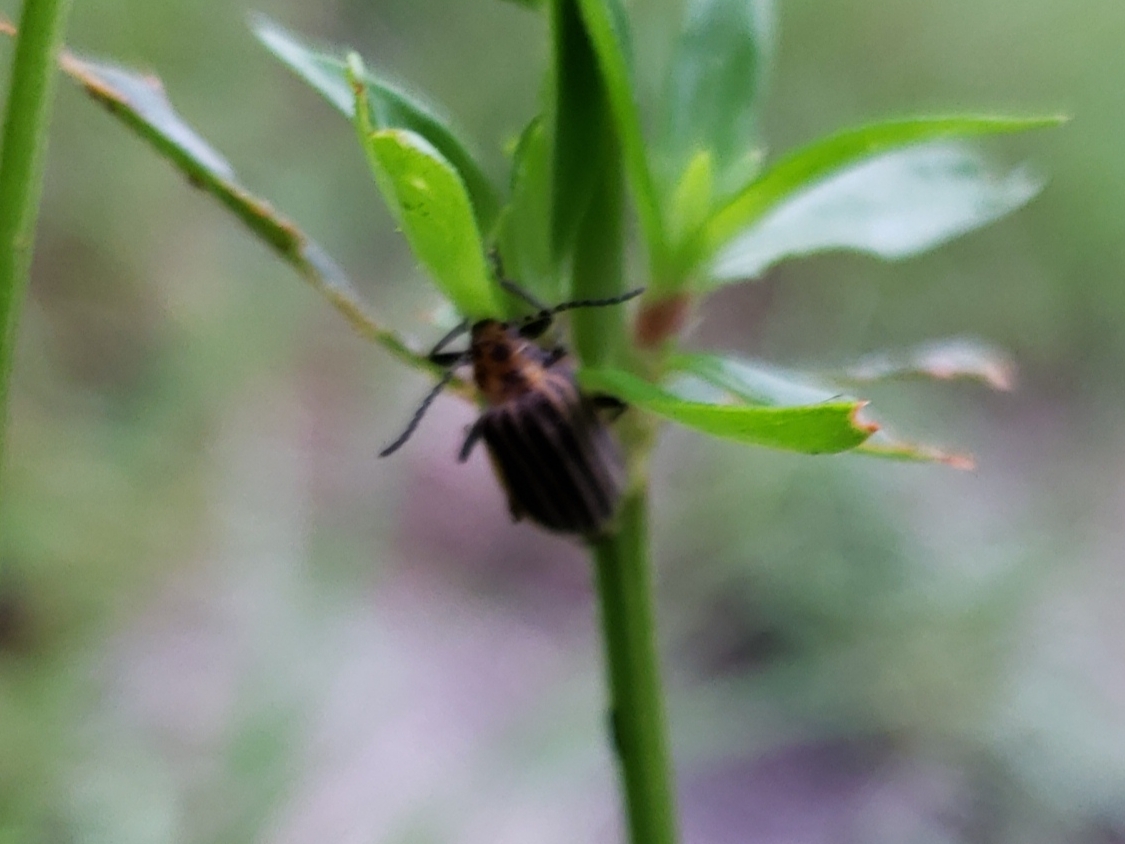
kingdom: Animalia
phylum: Arthropoda
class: Insecta
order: Coleoptera
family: Chrysomelidae
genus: Neolochmaea
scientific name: Neolochmaea dilatipennis
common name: Skeletonizing leaf beetle
